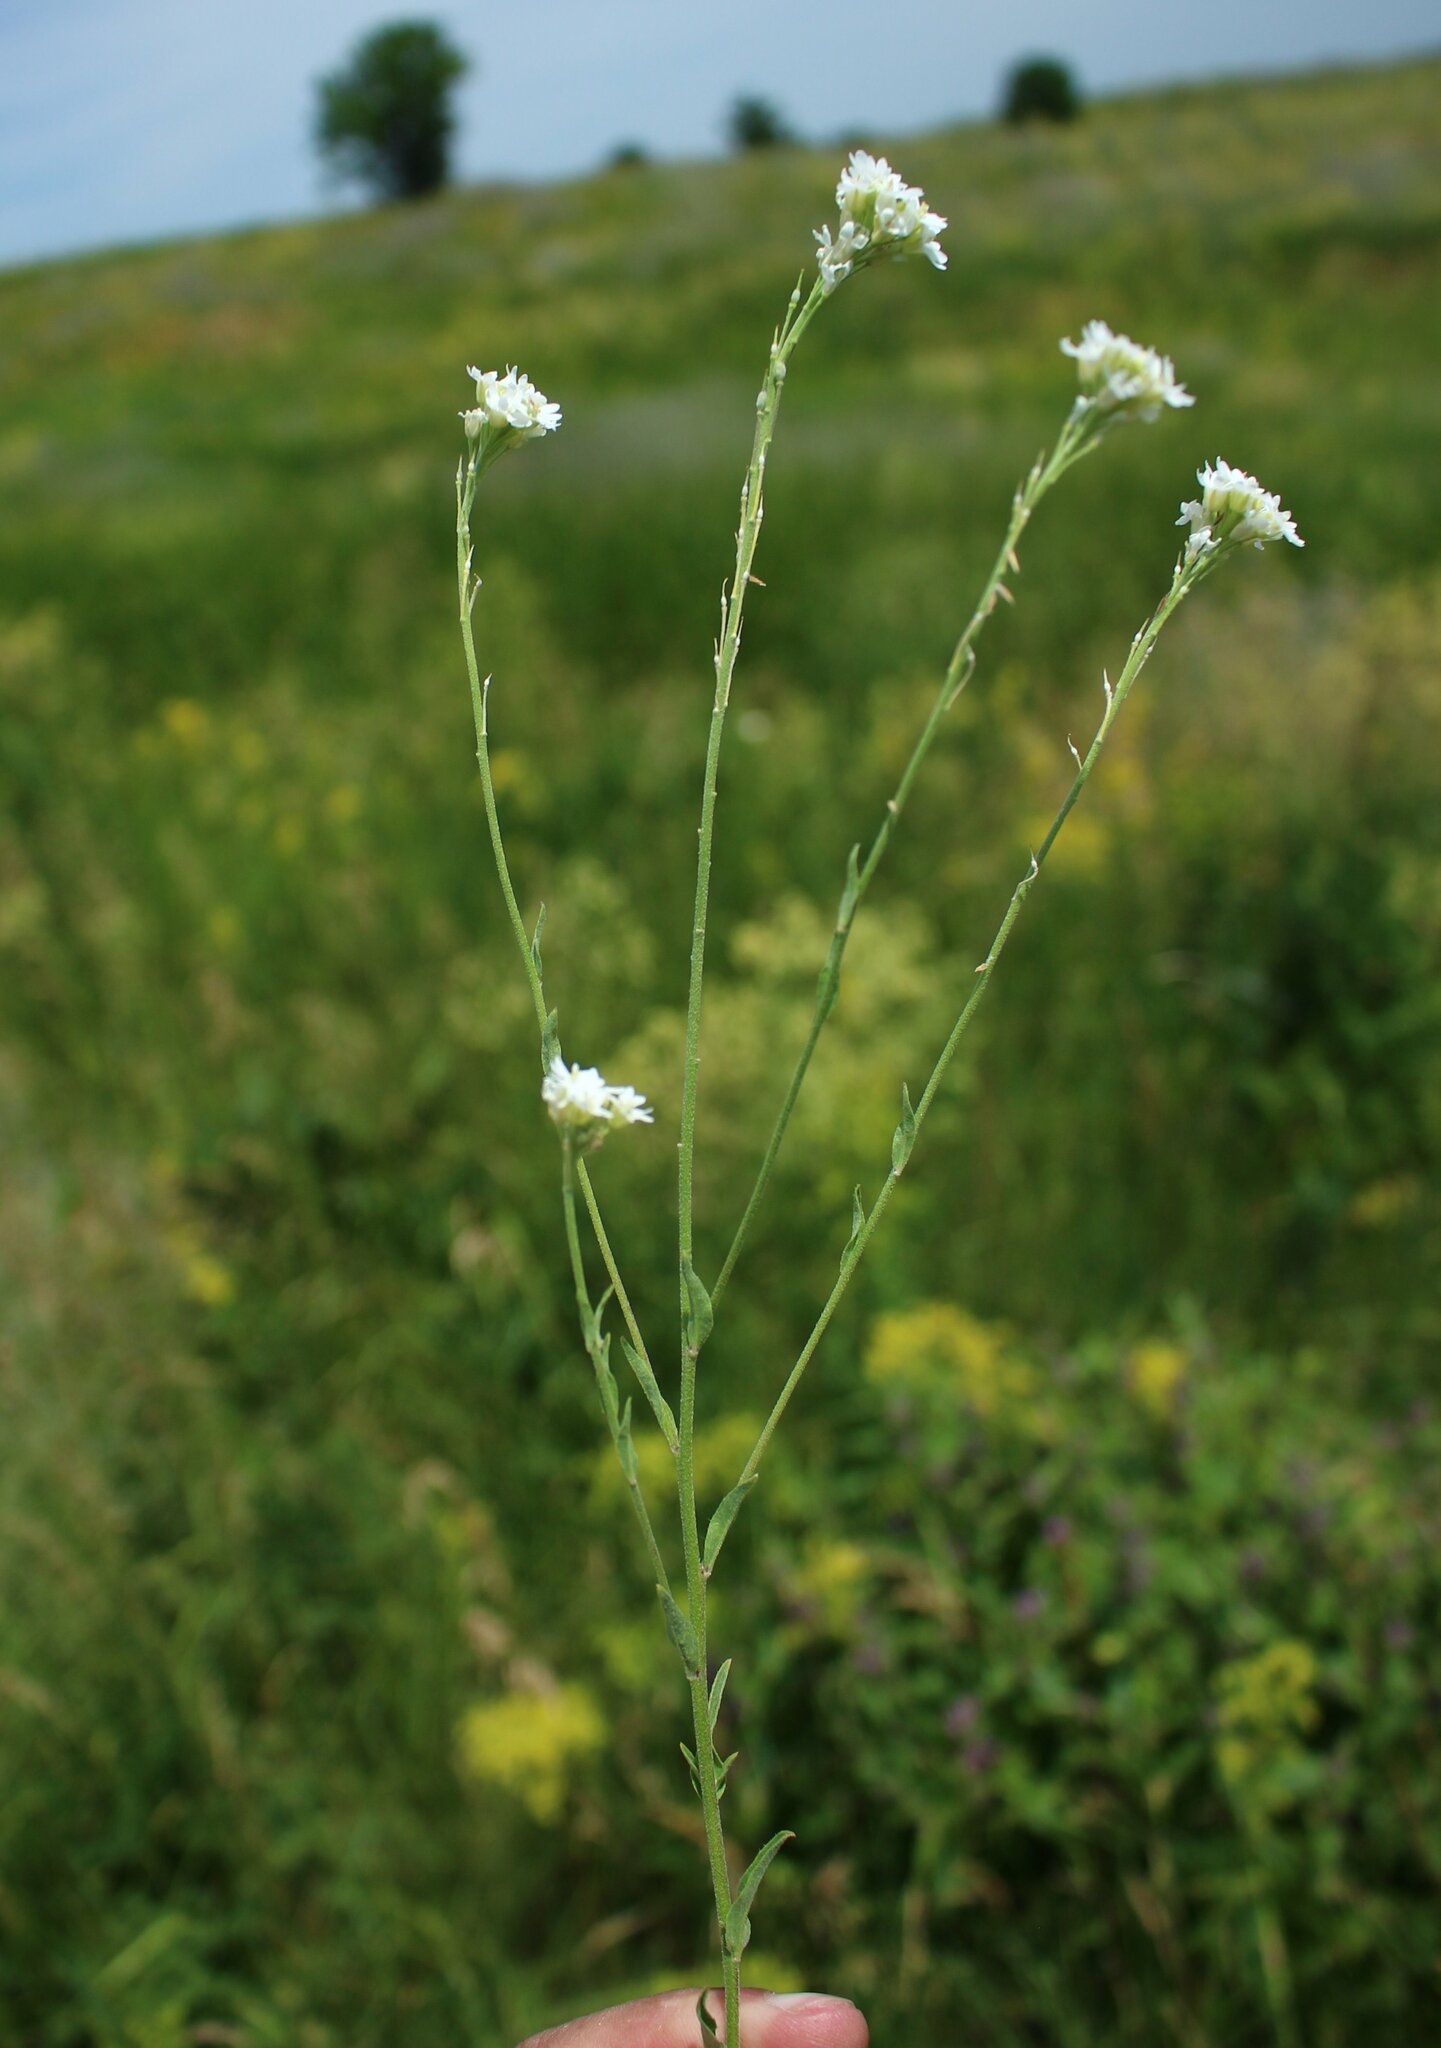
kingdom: Plantae
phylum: Tracheophyta
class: Magnoliopsida
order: Brassicales
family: Brassicaceae
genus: Berteroa
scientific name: Berteroa incana
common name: Hoary alison
